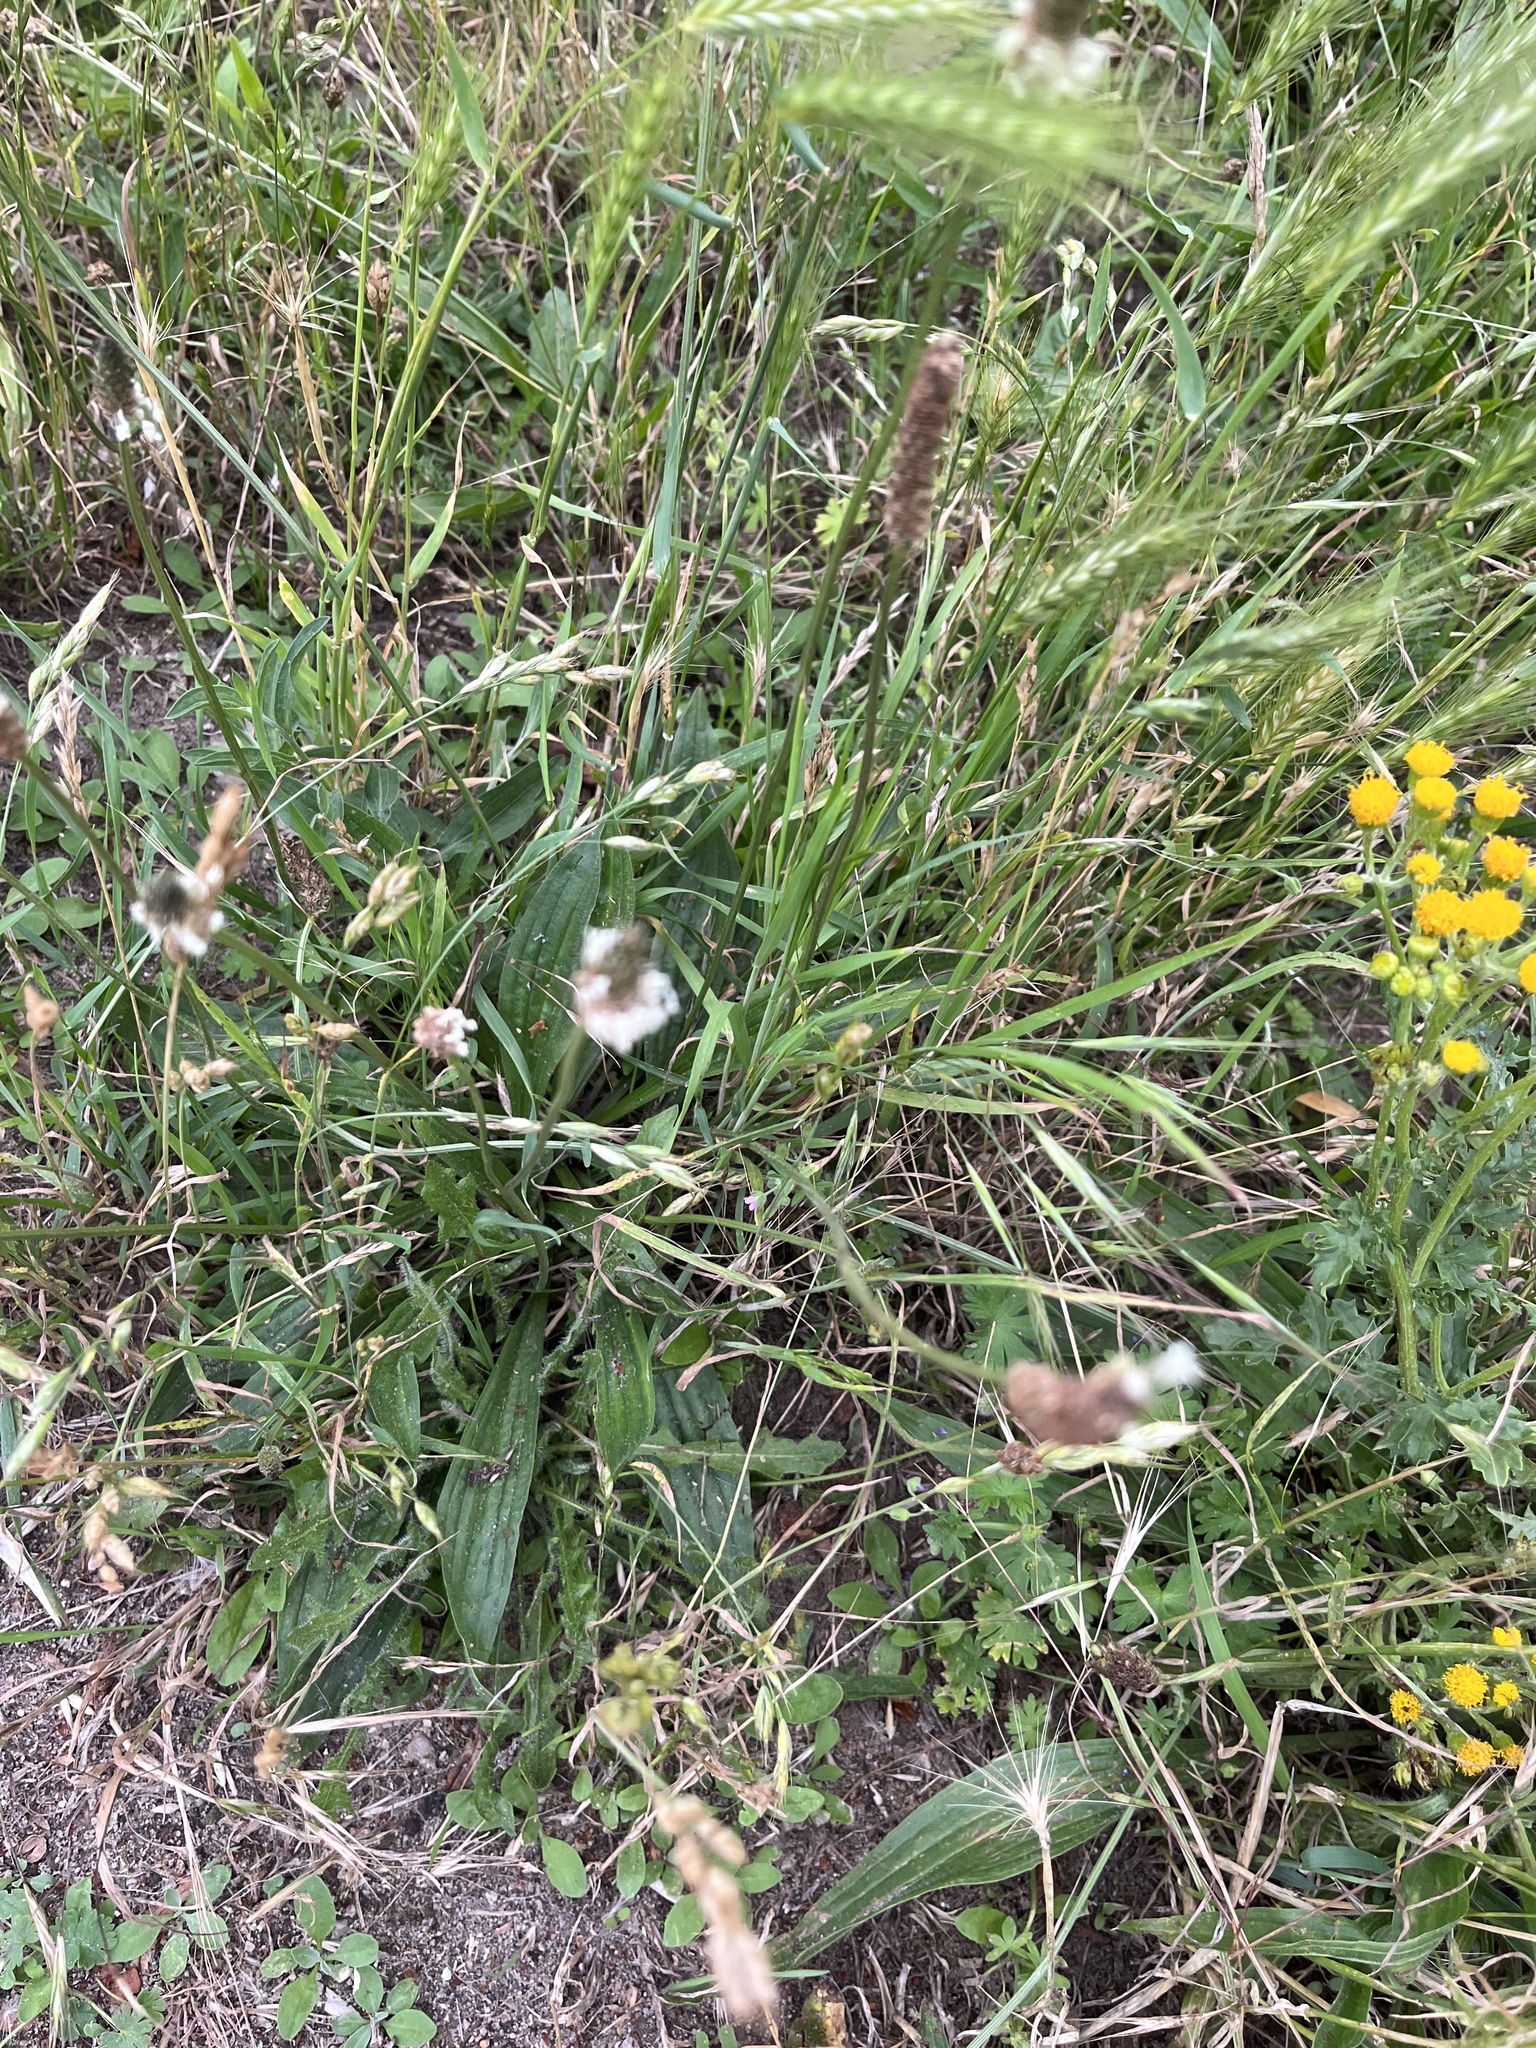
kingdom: Plantae
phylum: Tracheophyta
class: Magnoliopsida
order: Lamiales
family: Plantaginaceae
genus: Plantago
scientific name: Plantago lanceolata
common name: Ribwort plantain
